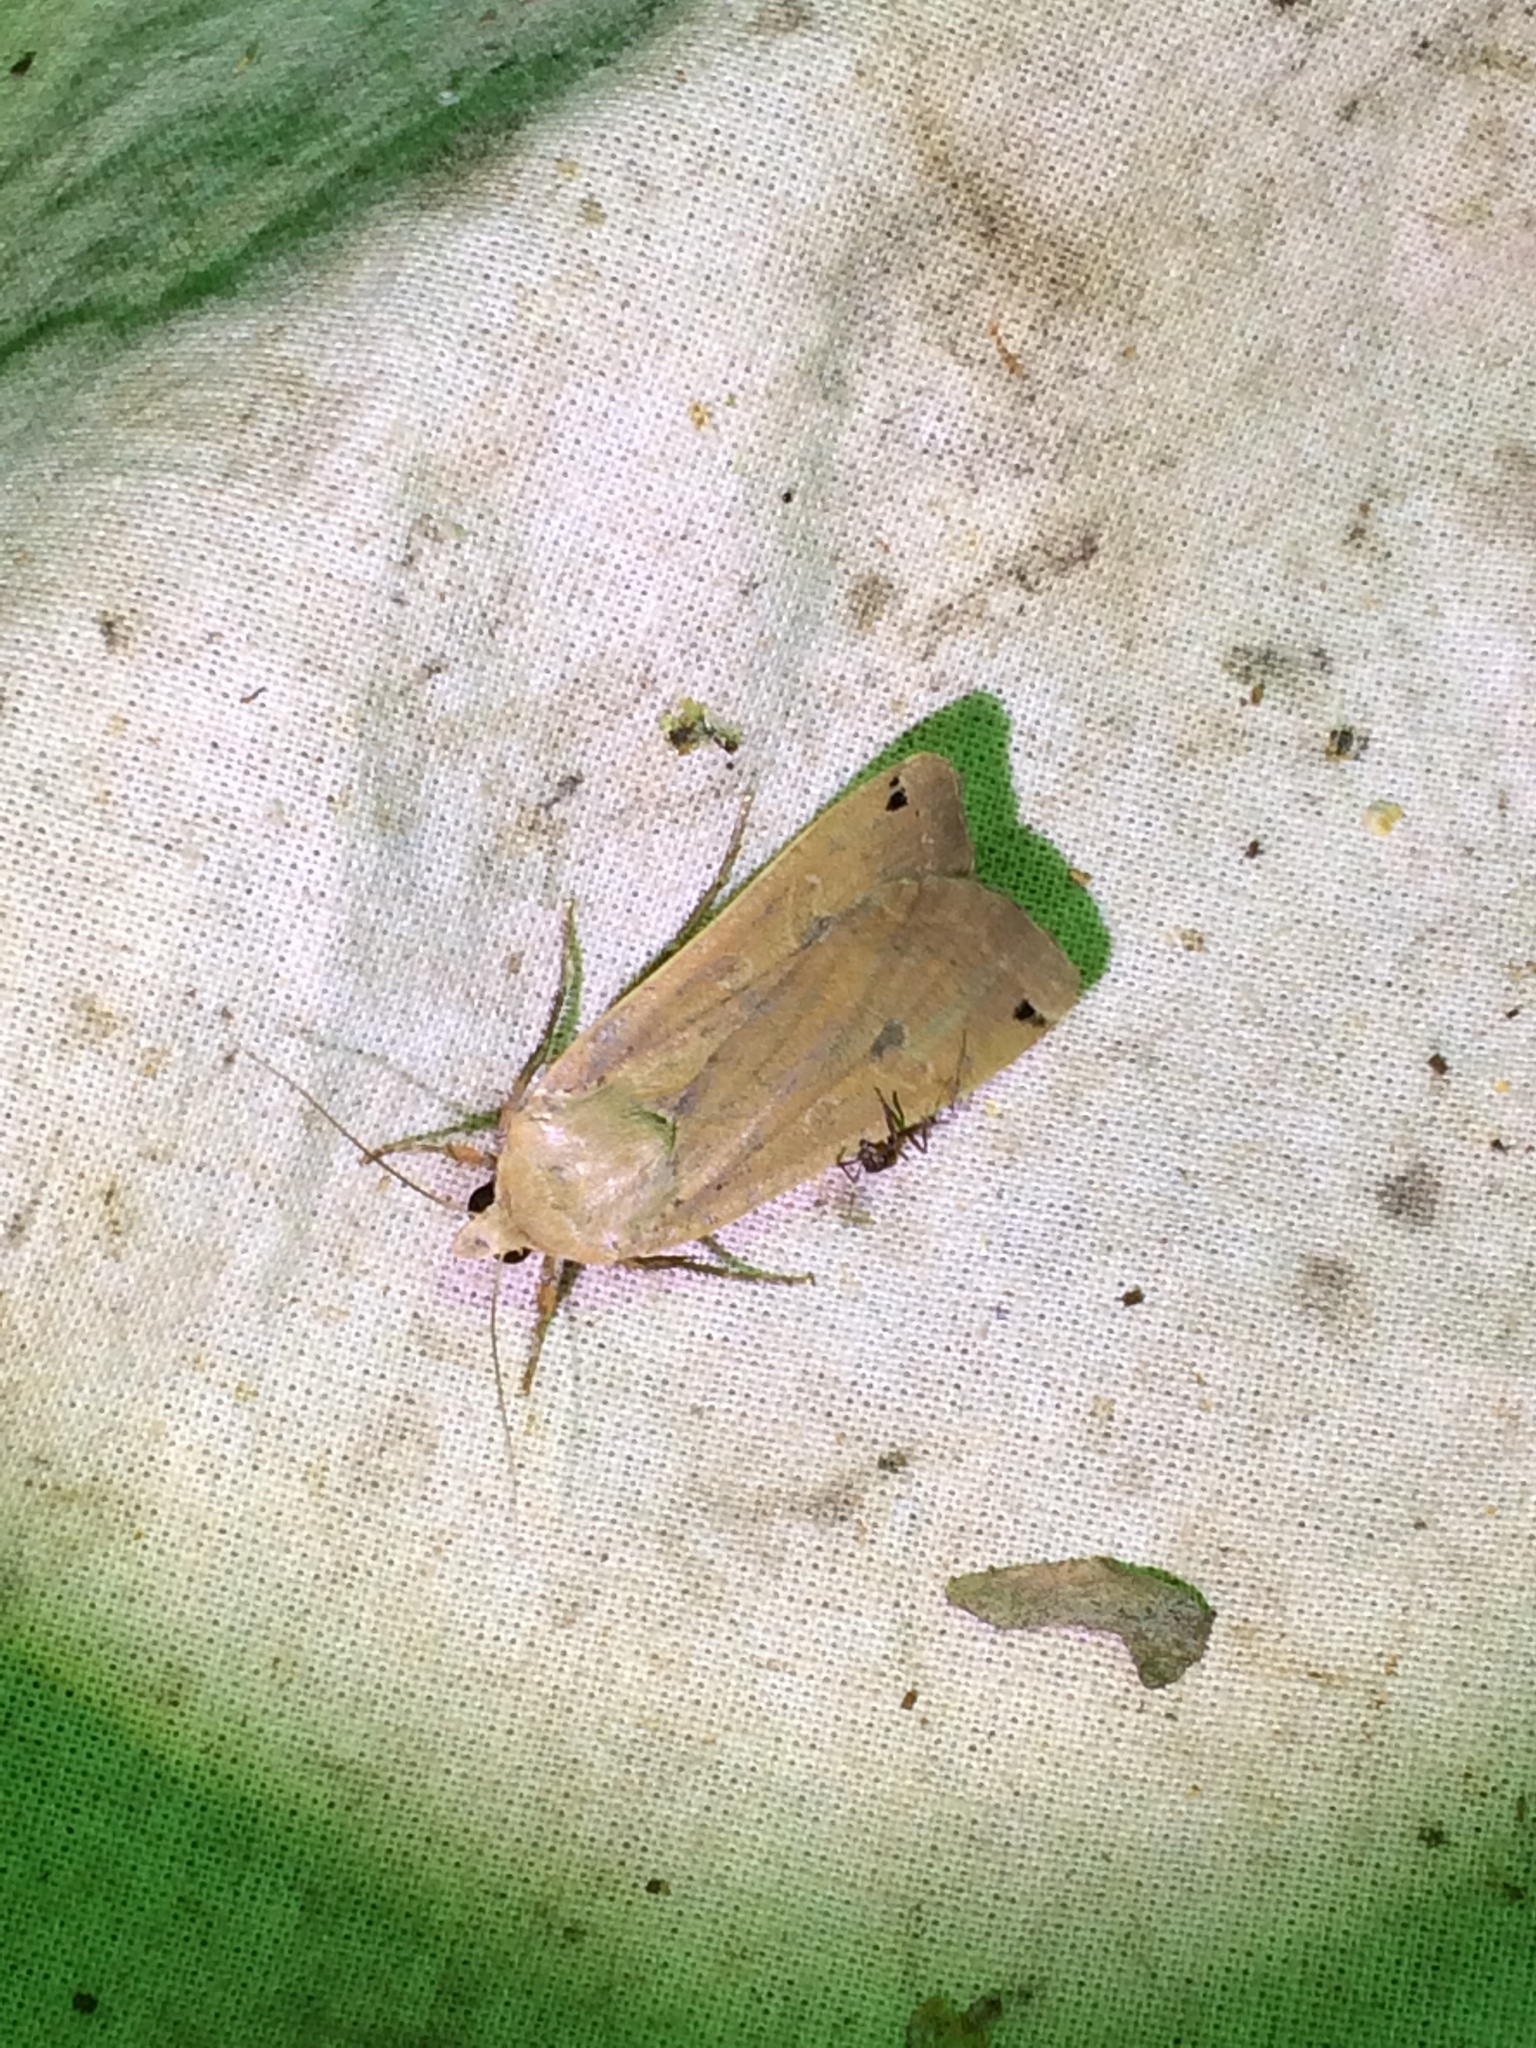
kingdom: Animalia
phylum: Arthropoda
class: Insecta
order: Lepidoptera
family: Noctuidae
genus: Noctua
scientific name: Noctua pronuba
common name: Large yellow underwing
